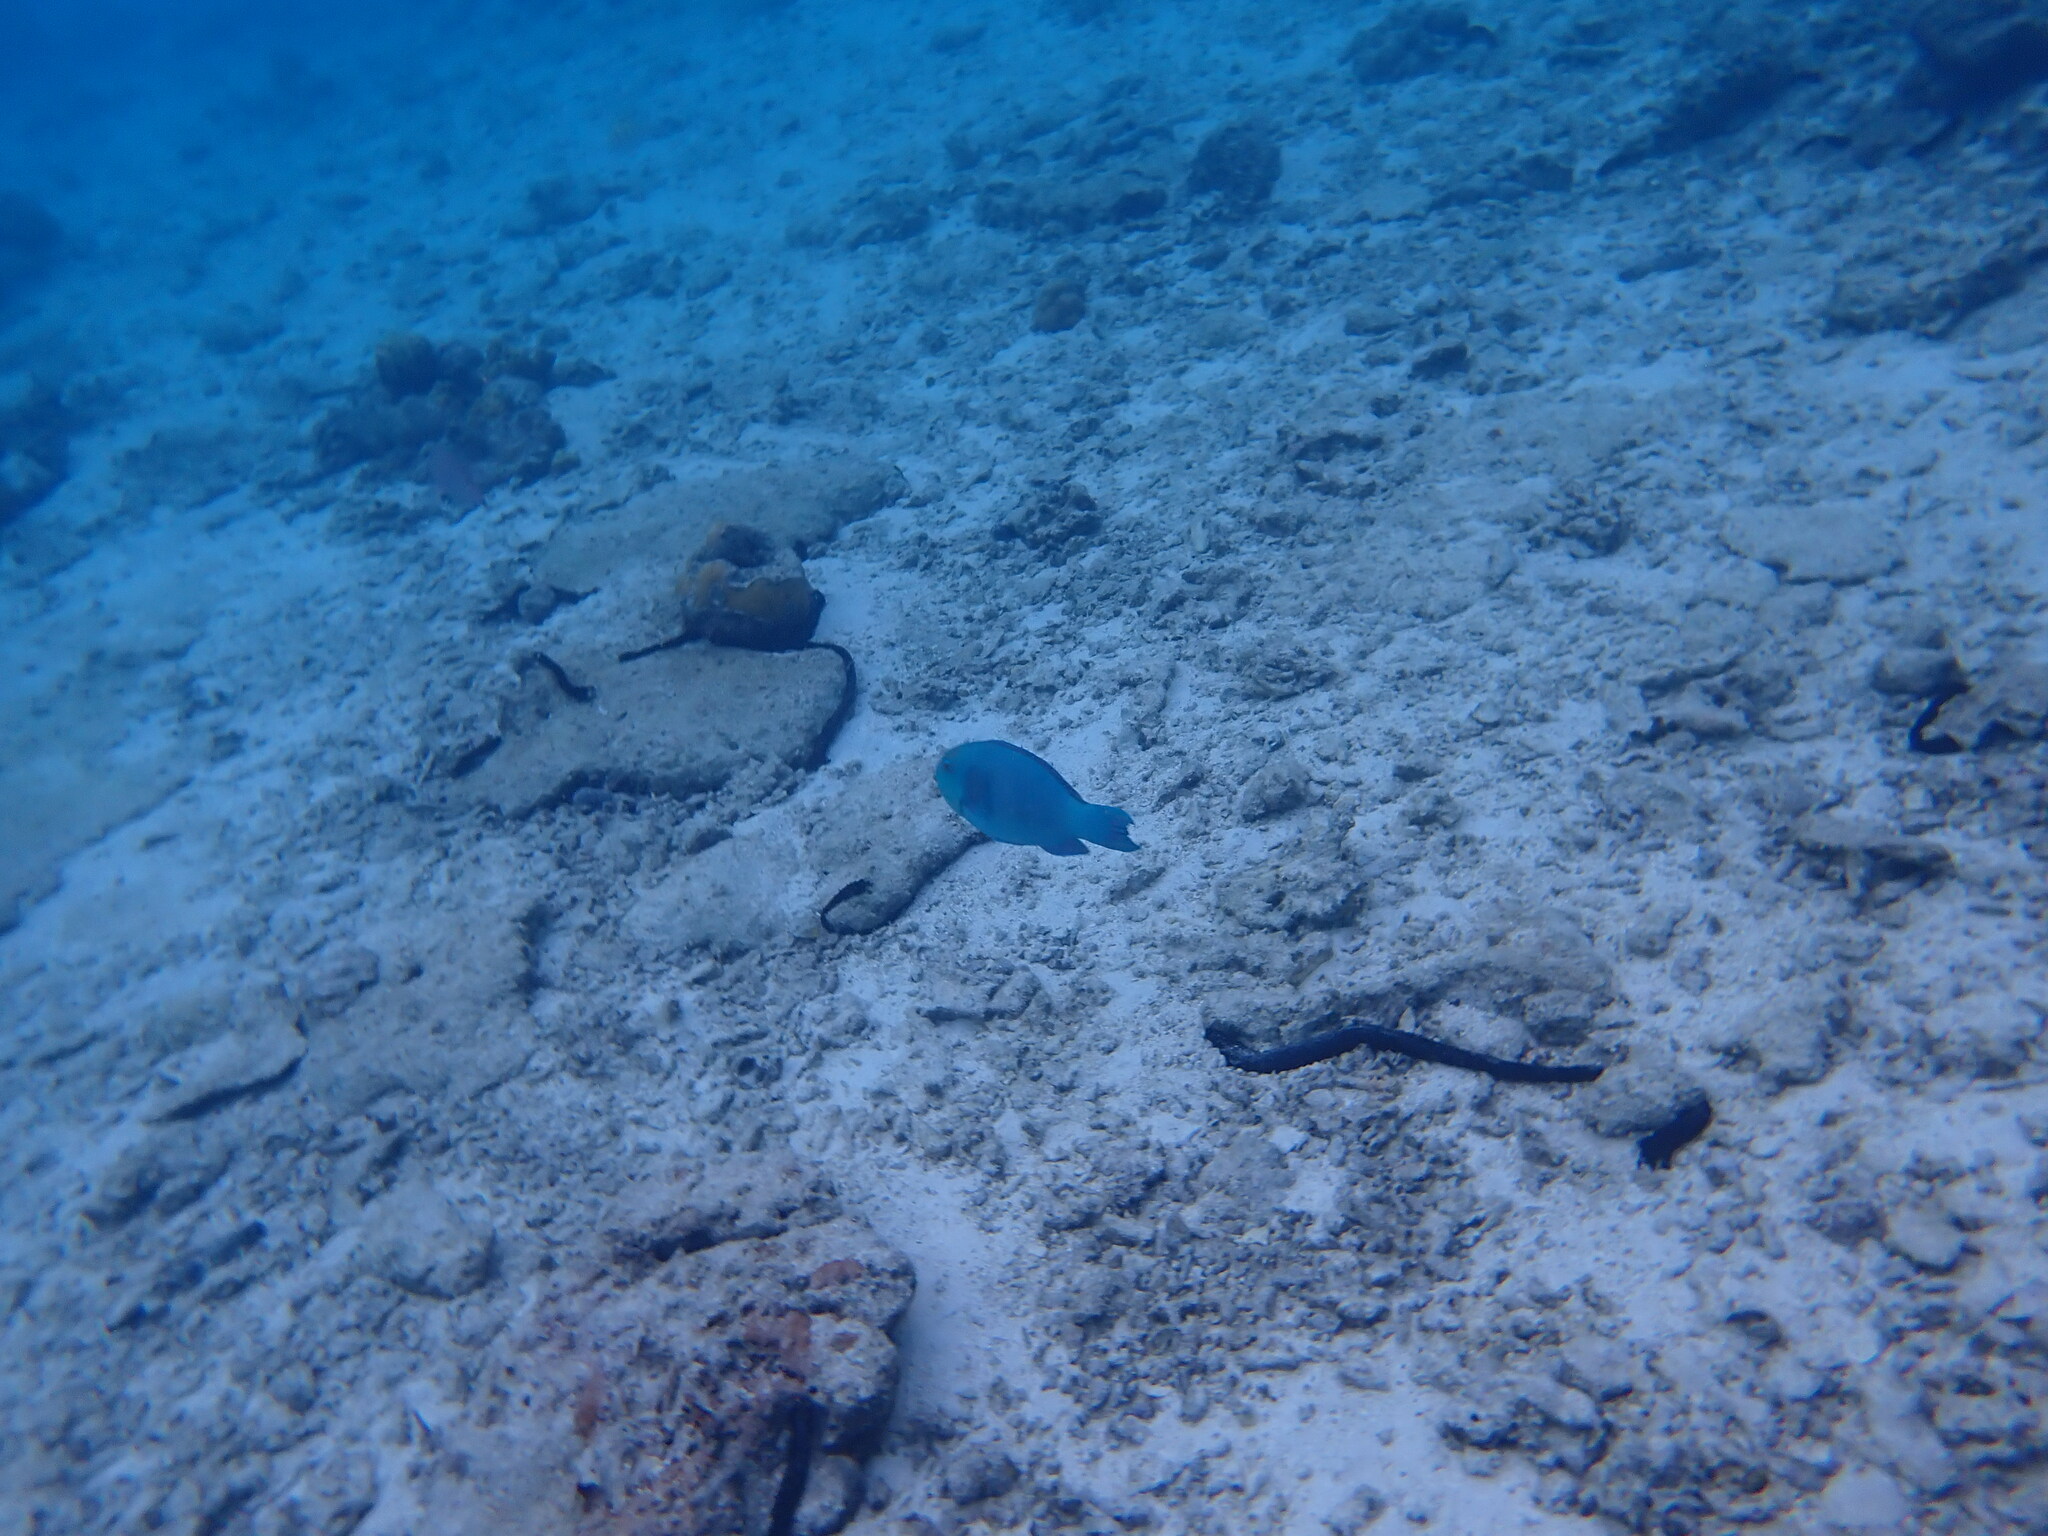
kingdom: Animalia
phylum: Chordata
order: Perciformes
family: Scaridae
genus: Chlorurus
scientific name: Chlorurus frontalis
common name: Reefcrest parrotfish
